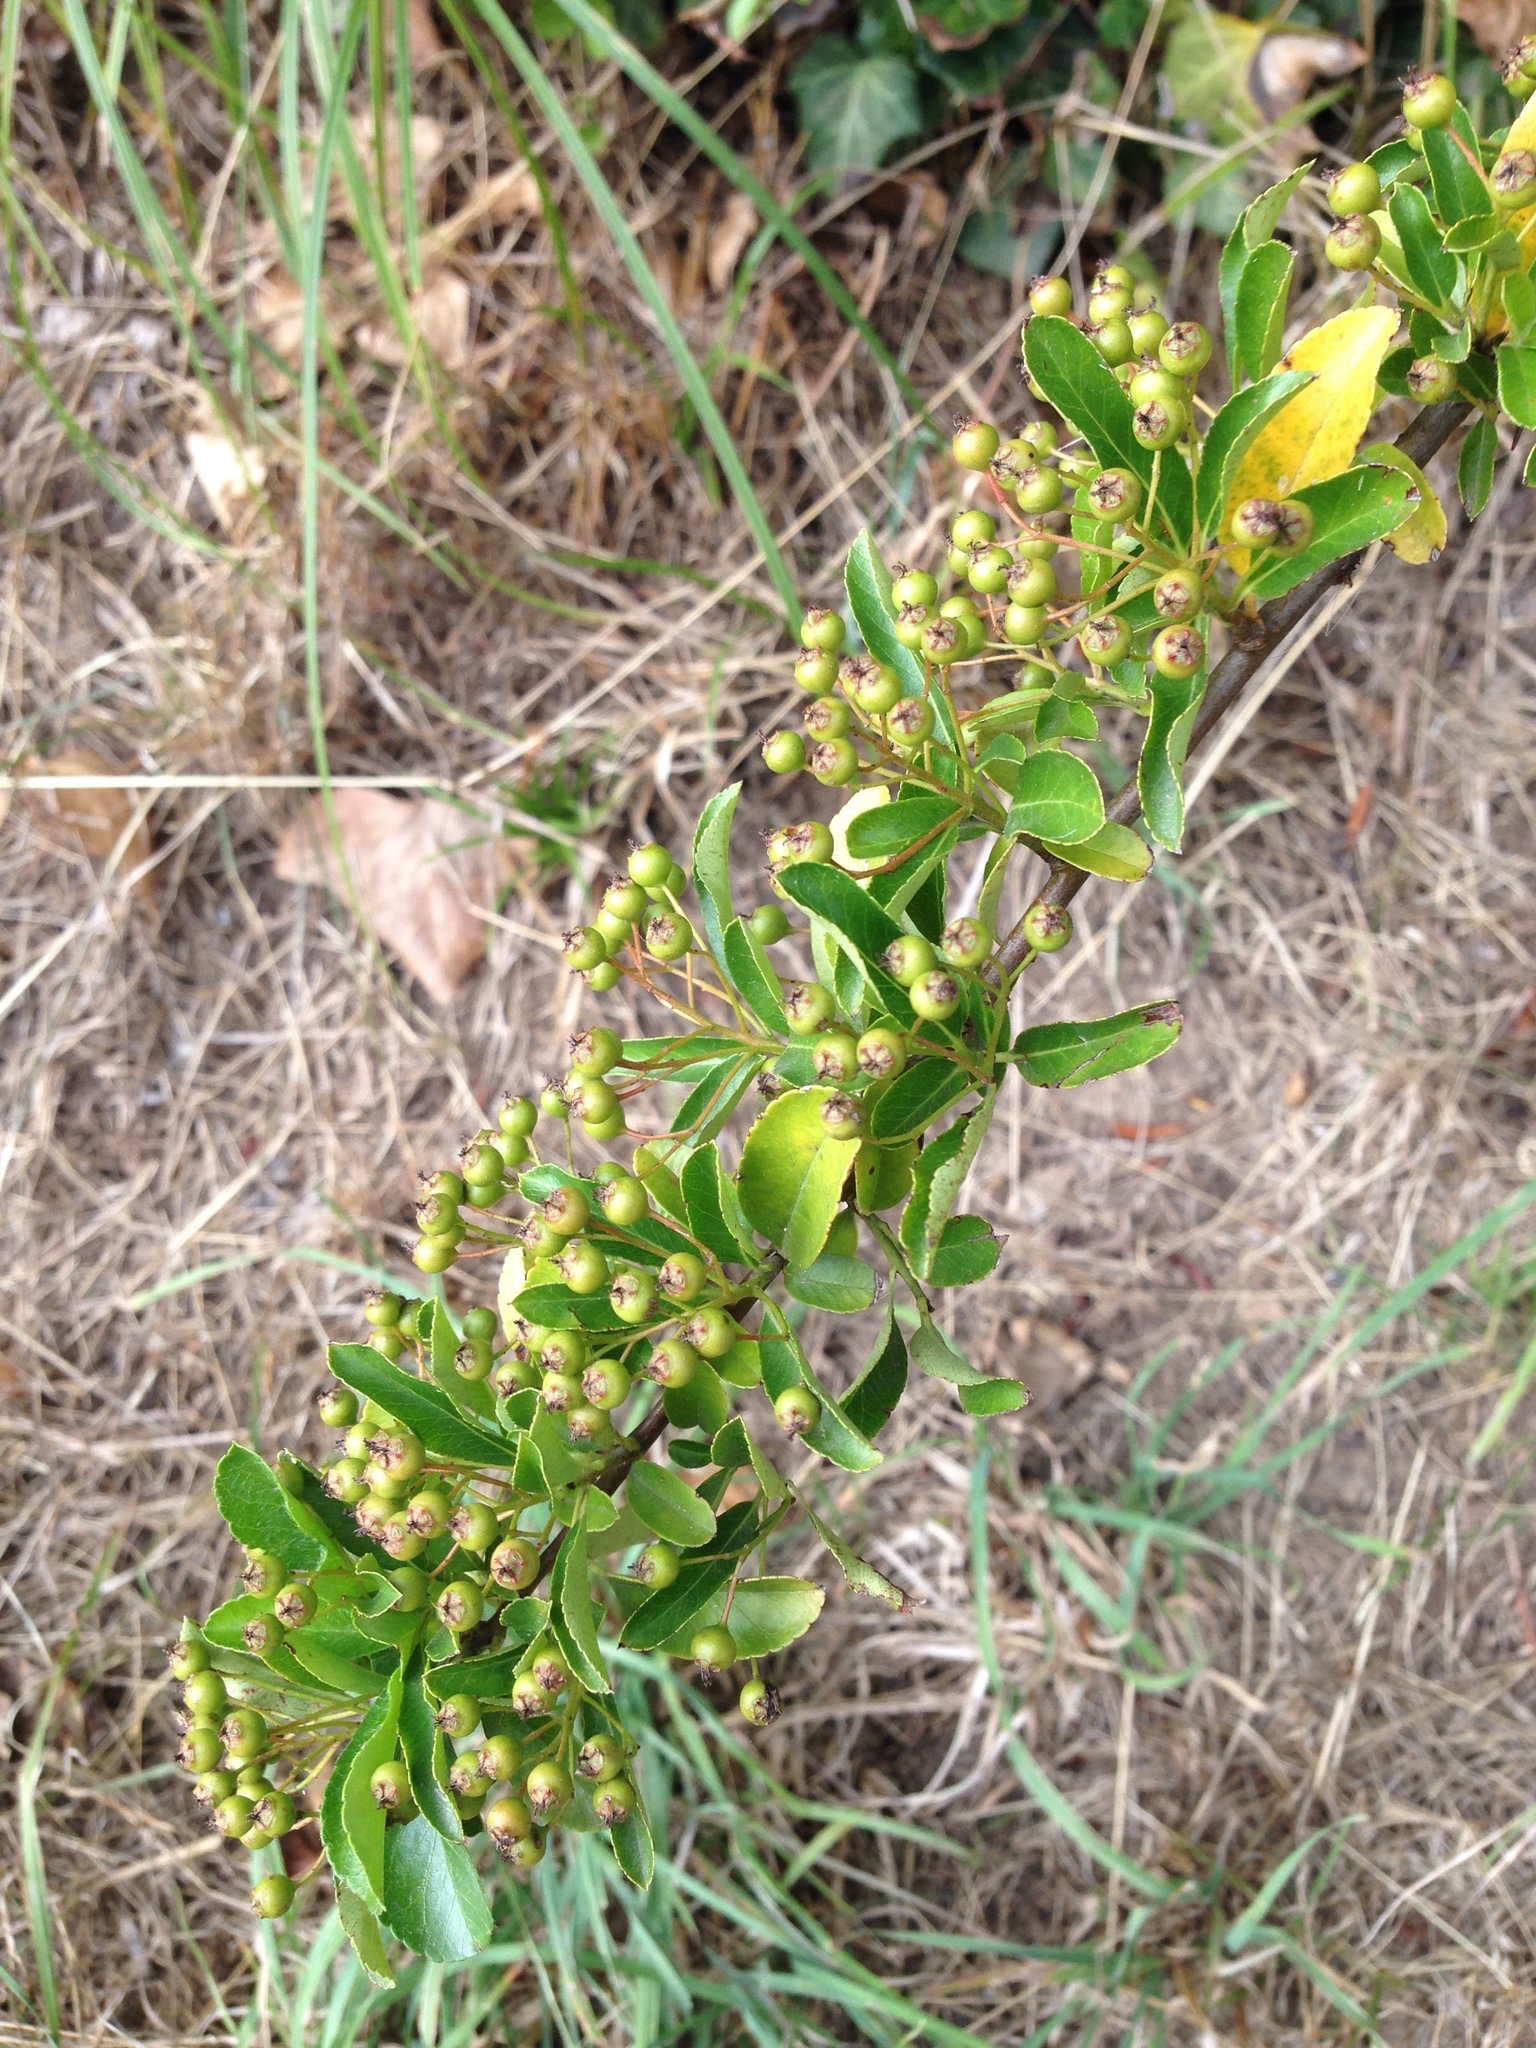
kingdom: Plantae
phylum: Tracheophyta
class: Magnoliopsida
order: Rosales
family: Rosaceae
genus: Pyracantha
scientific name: Pyracantha coccinea
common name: Firethorn
